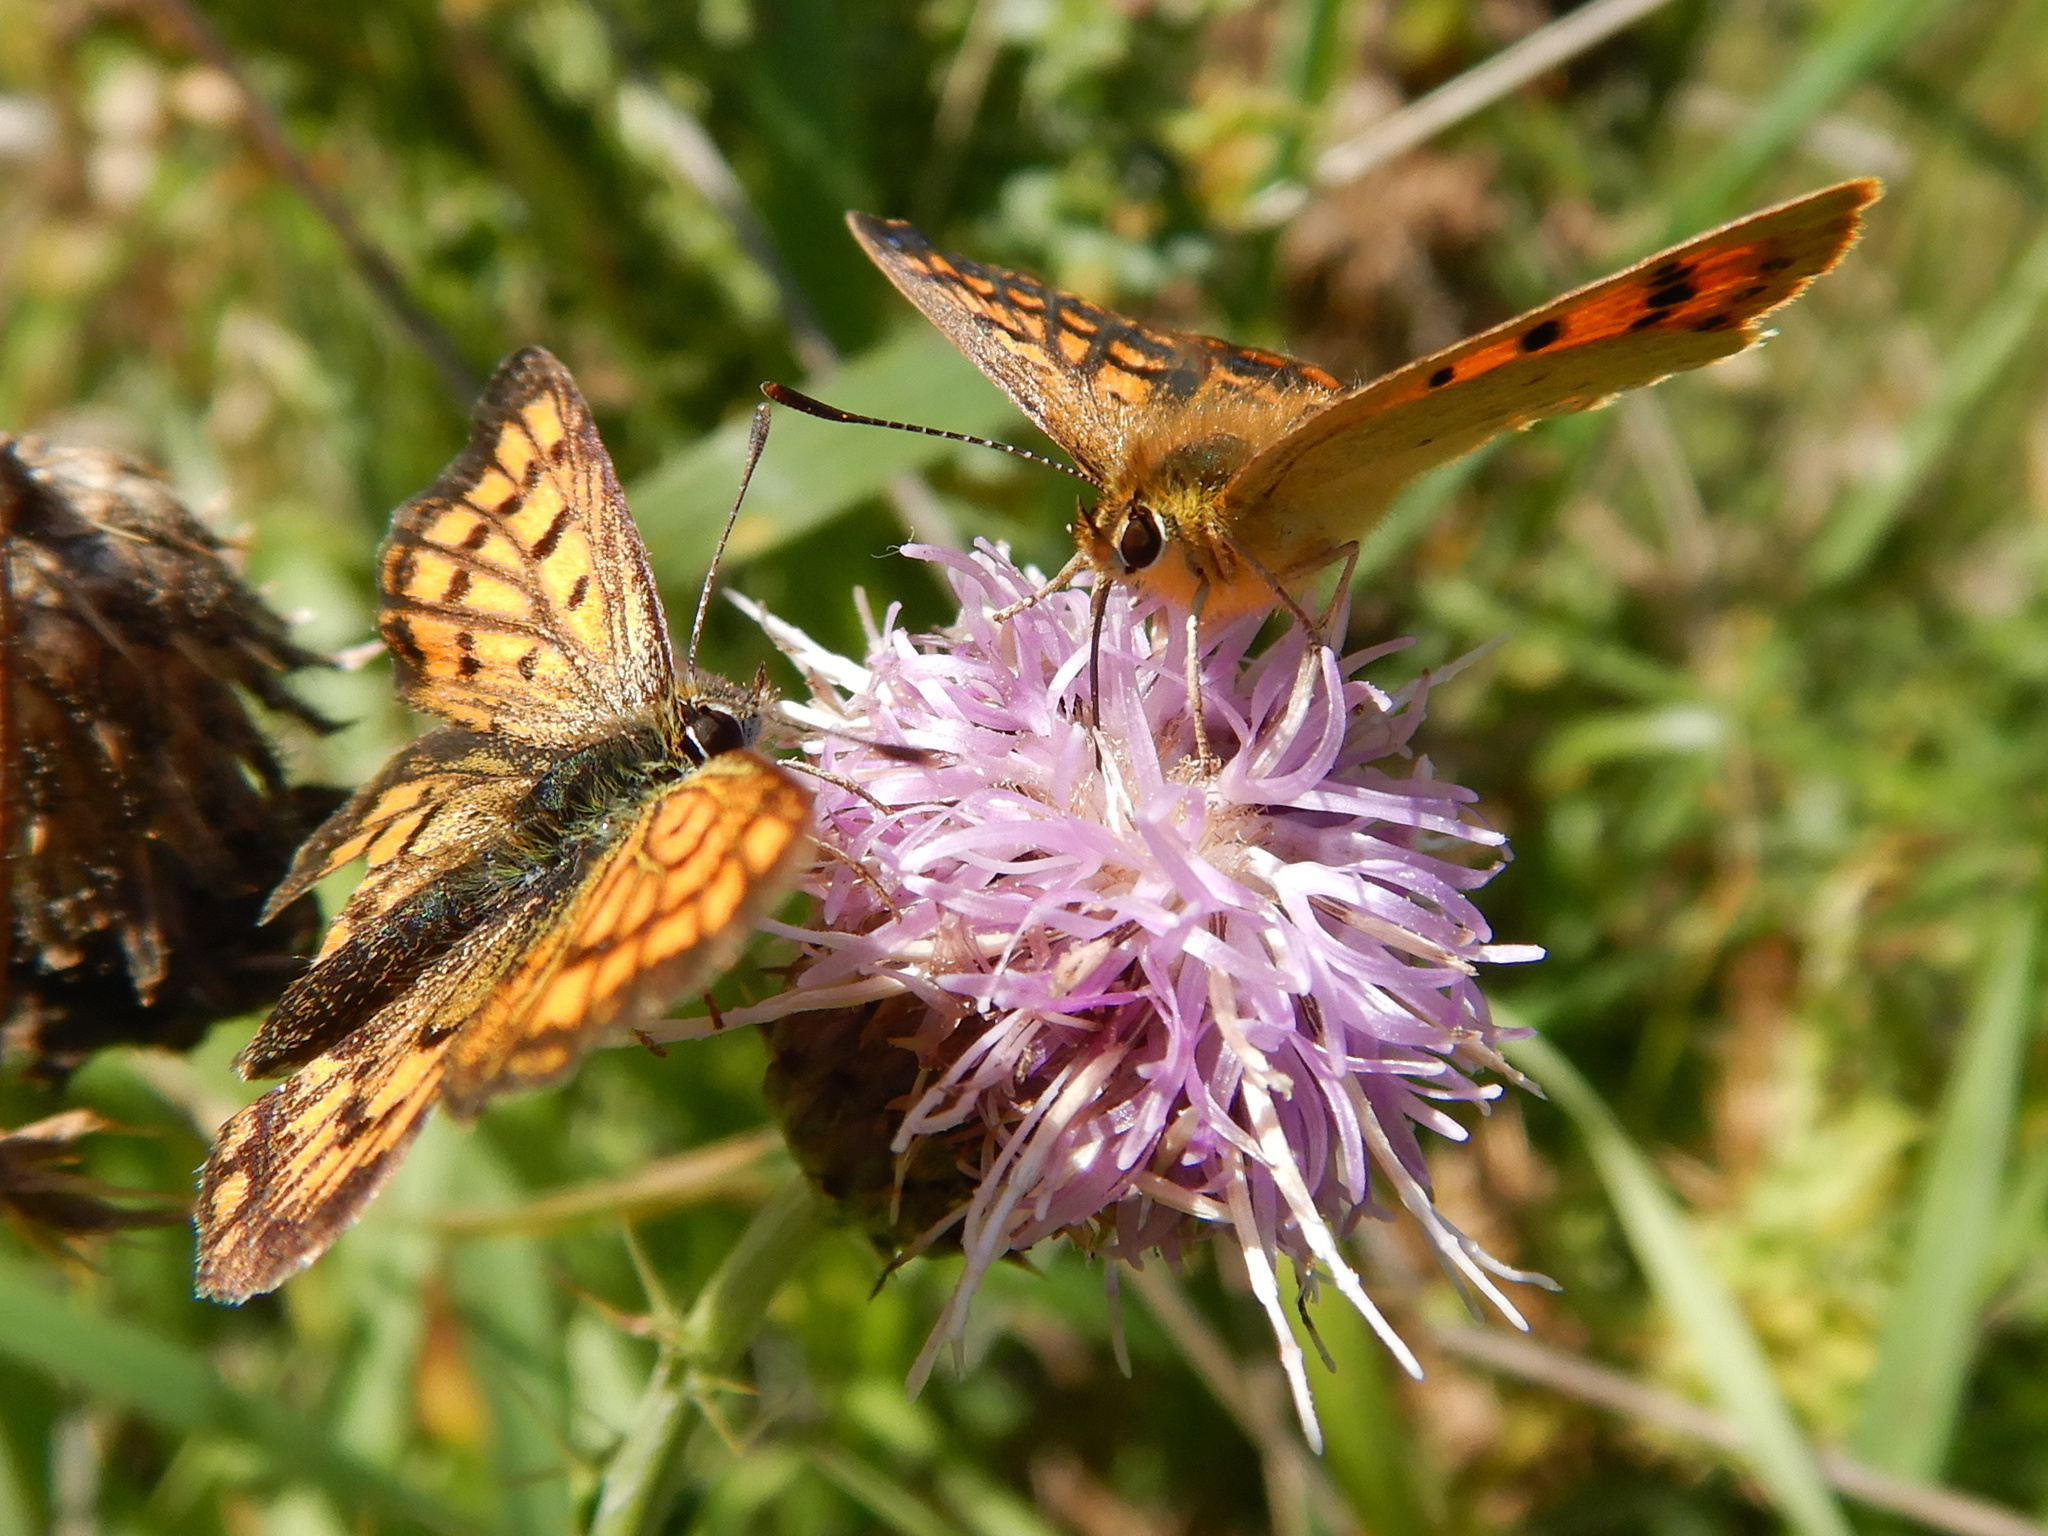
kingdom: Animalia
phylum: Arthropoda
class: Insecta
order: Lepidoptera
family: Lycaenidae
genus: Lycaena
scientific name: Lycaena
